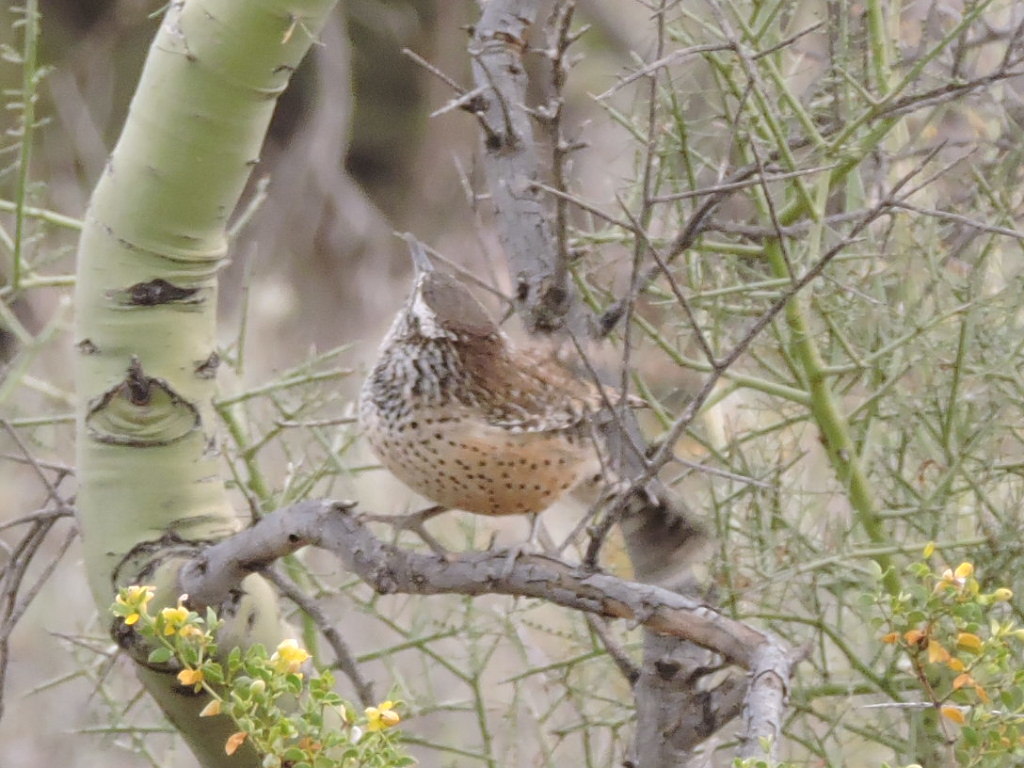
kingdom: Animalia
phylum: Chordata
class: Aves
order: Passeriformes
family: Troglodytidae
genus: Campylorhynchus
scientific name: Campylorhynchus brunneicapillus
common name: Cactus wren
